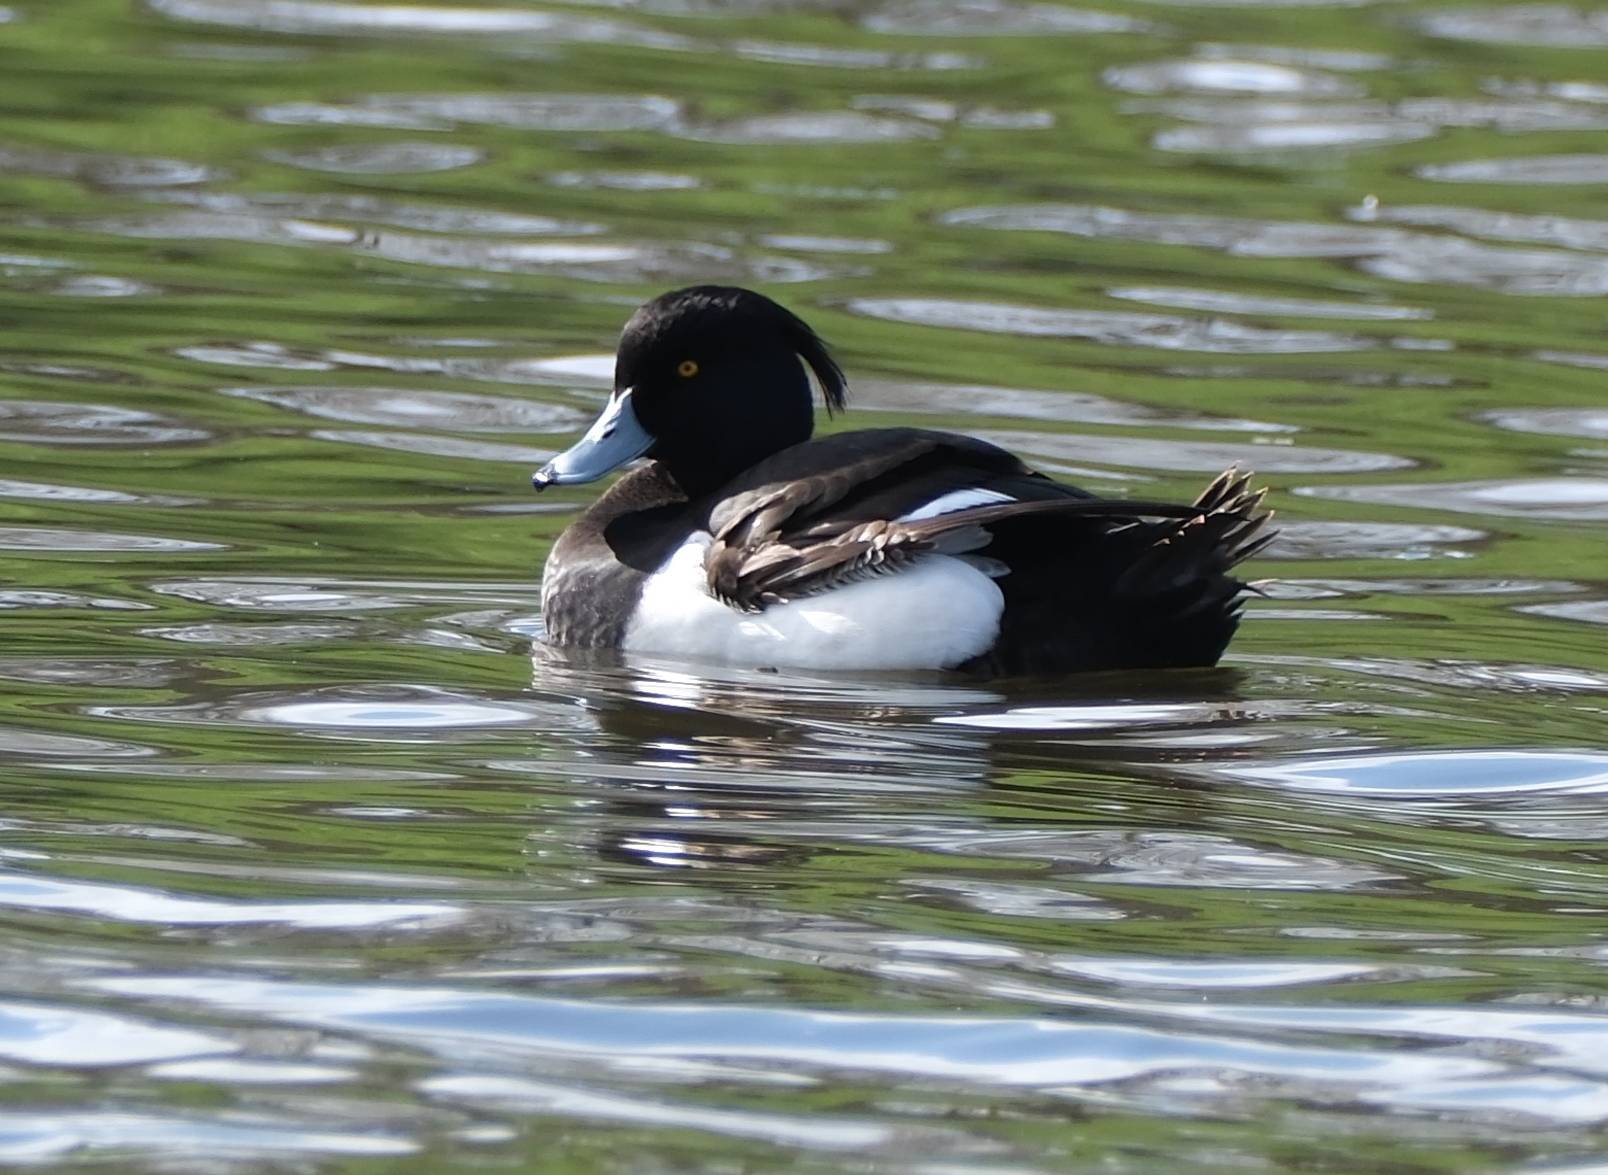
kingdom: Animalia
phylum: Chordata
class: Aves
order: Anseriformes
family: Anatidae
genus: Aythya
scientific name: Aythya fuligula
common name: Tufted duck
